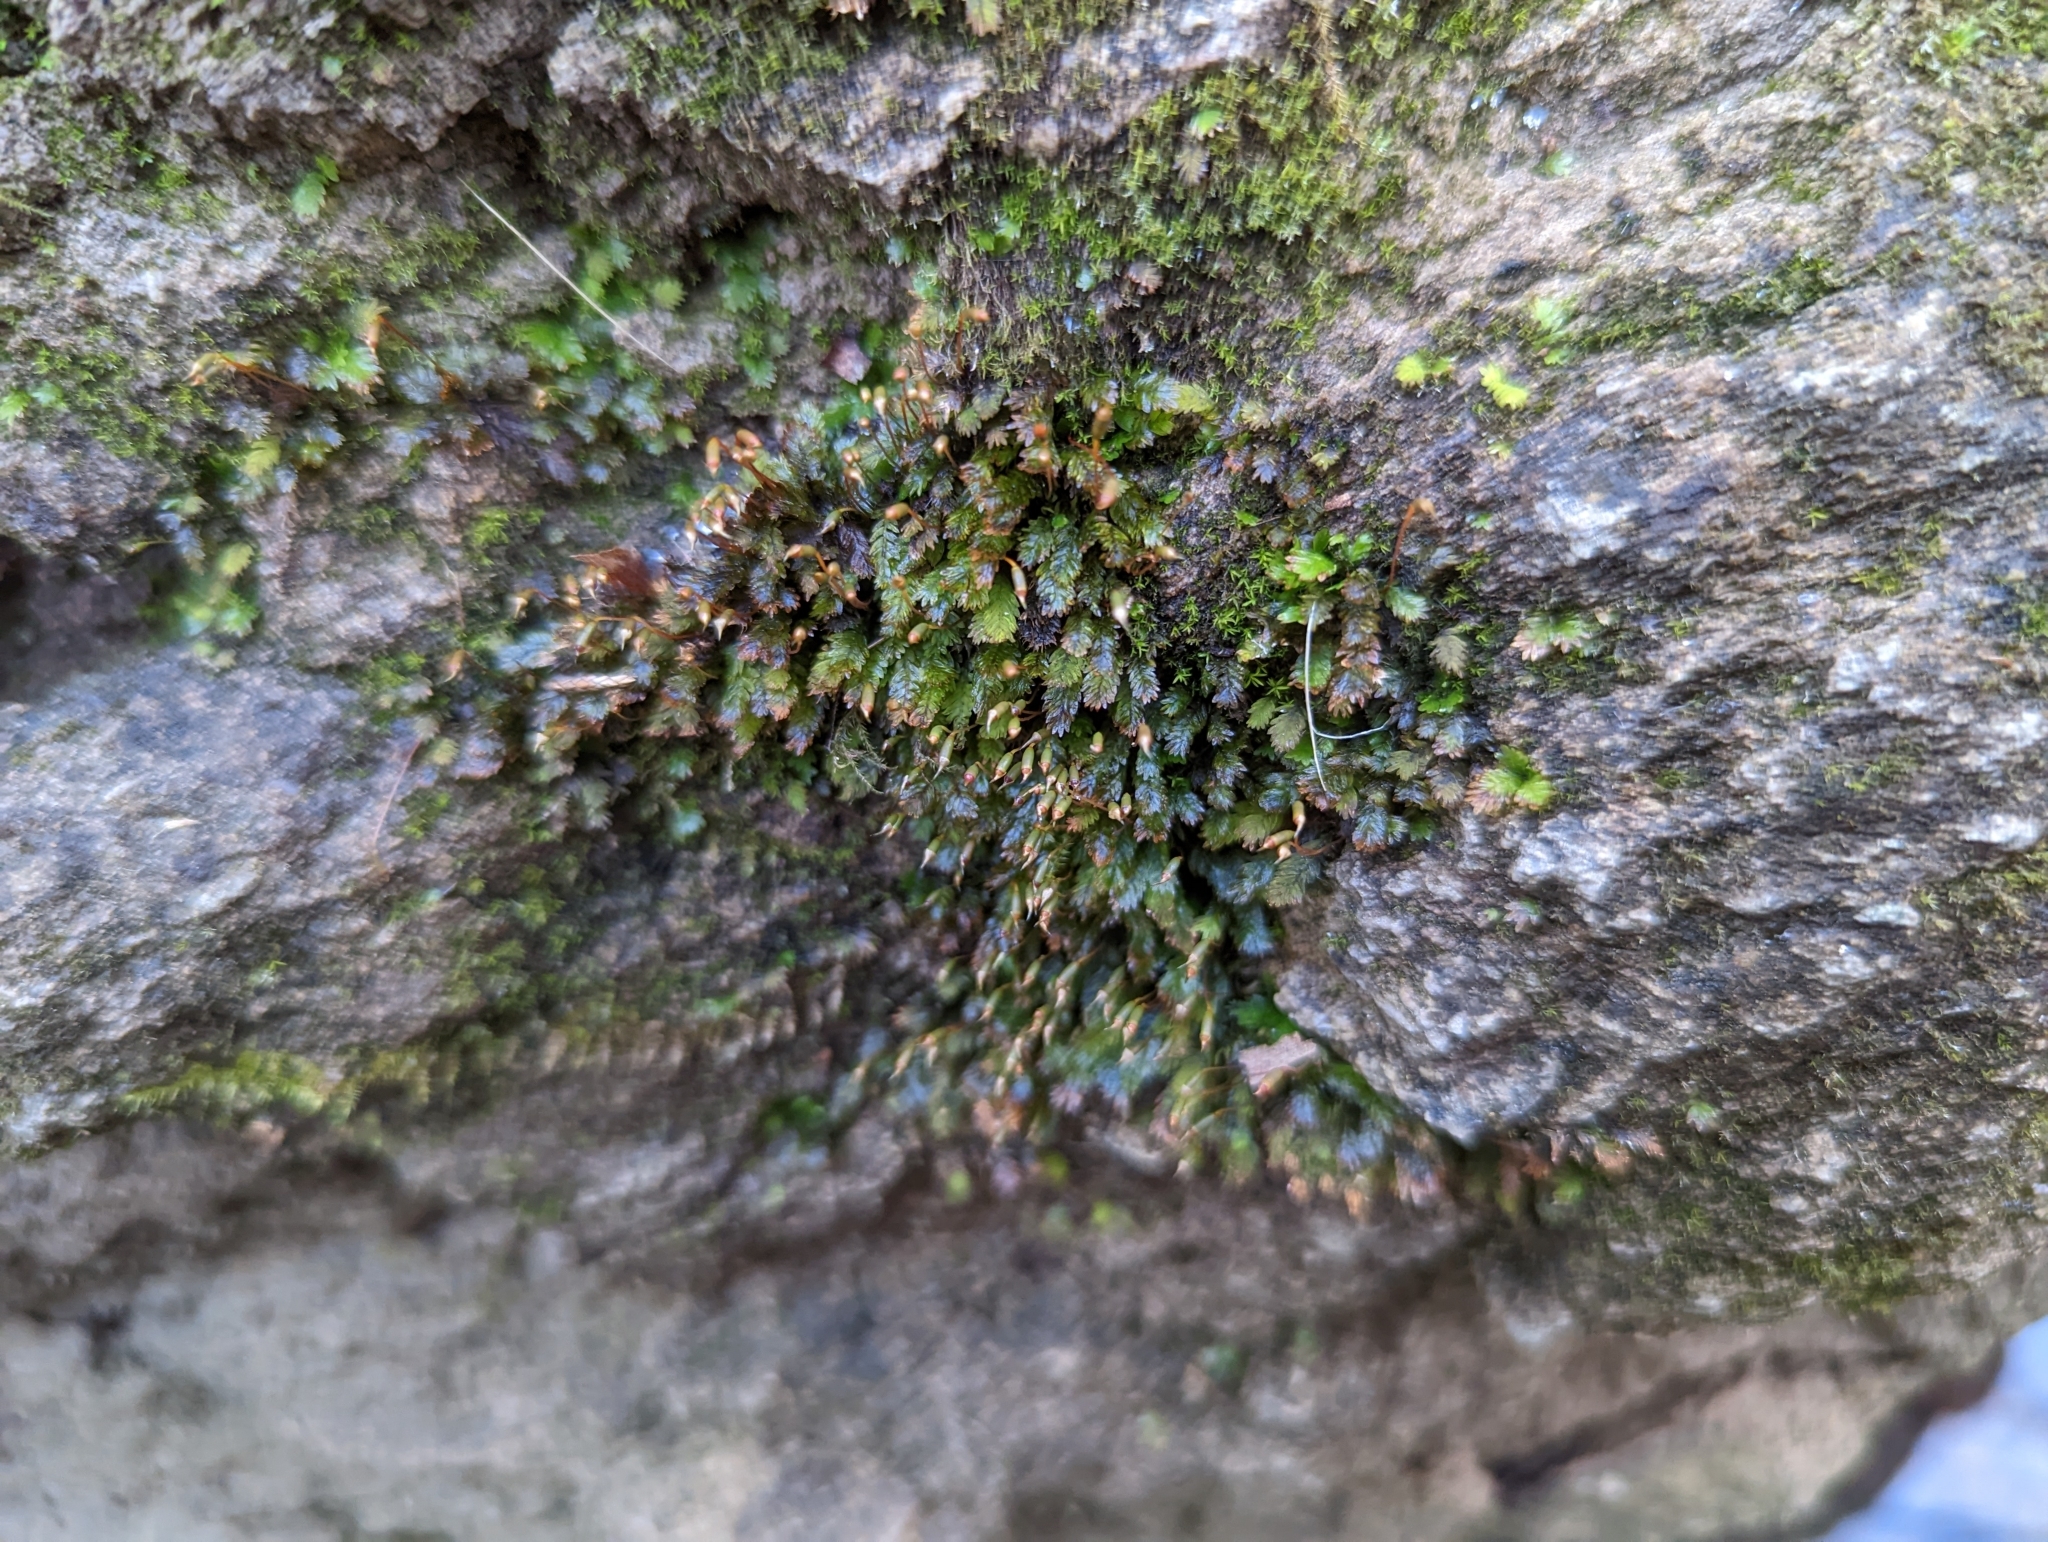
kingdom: Plantae
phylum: Bryophyta
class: Bryopsida
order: Dicranales
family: Fissidentaceae
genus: Fissidens
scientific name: Fissidens dubius
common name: Rock pocket moss
